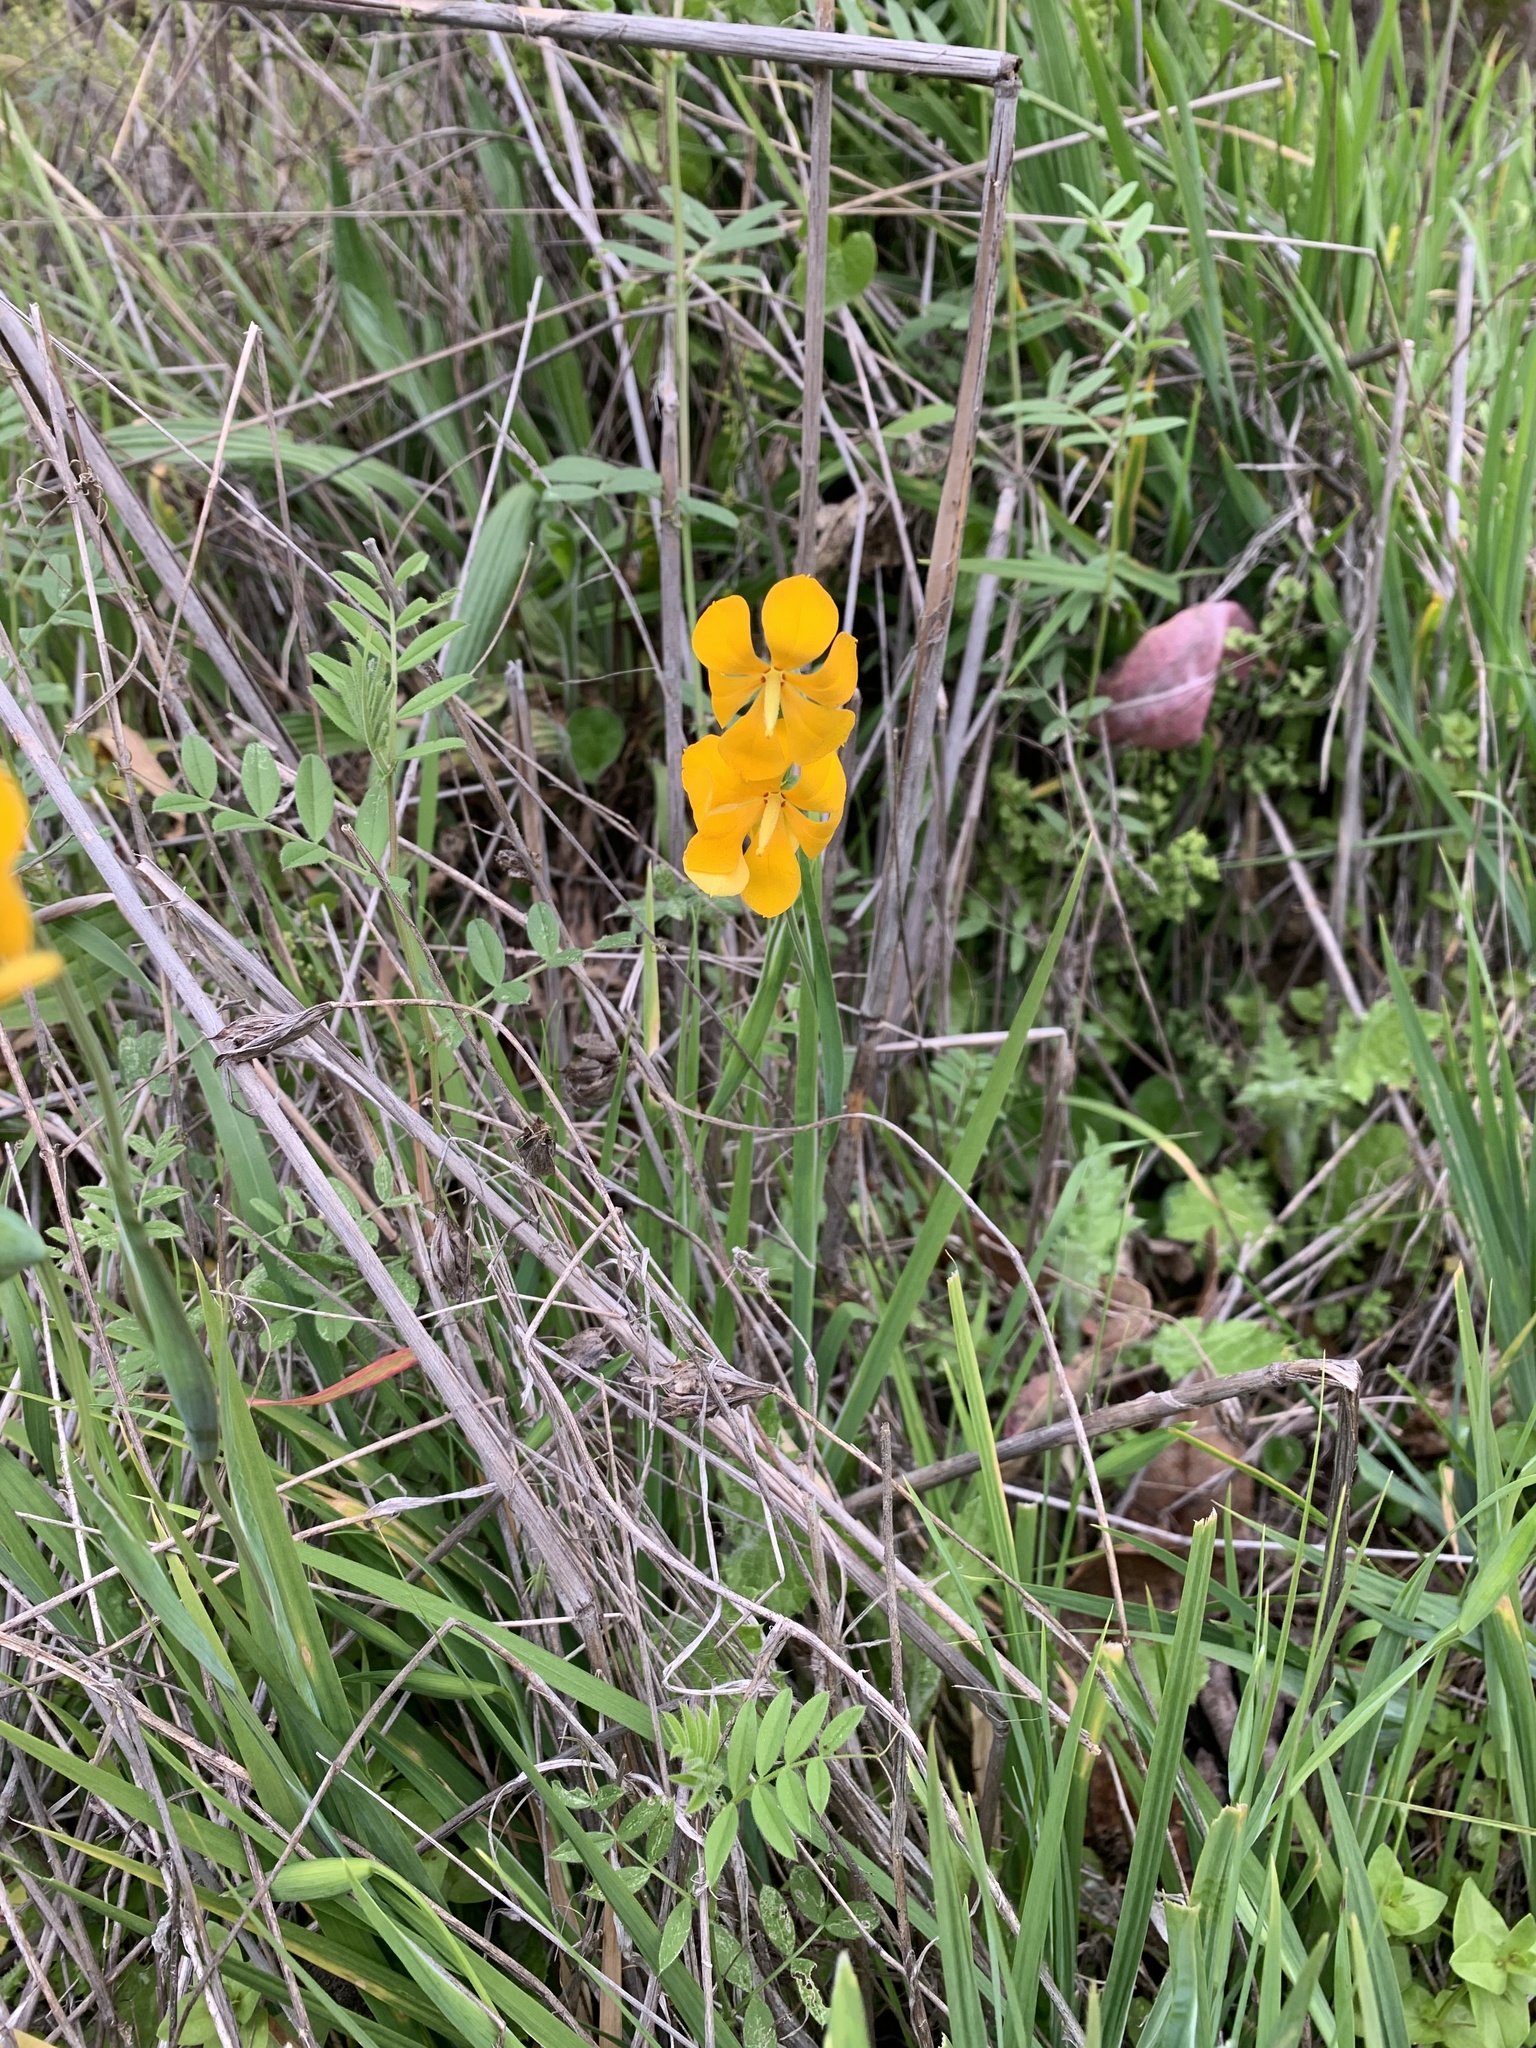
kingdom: Plantae
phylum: Tracheophyta
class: Liliopsida
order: Asparagales
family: Iridaceae
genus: Solenomelus
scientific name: Solenomelus pedunculatus
